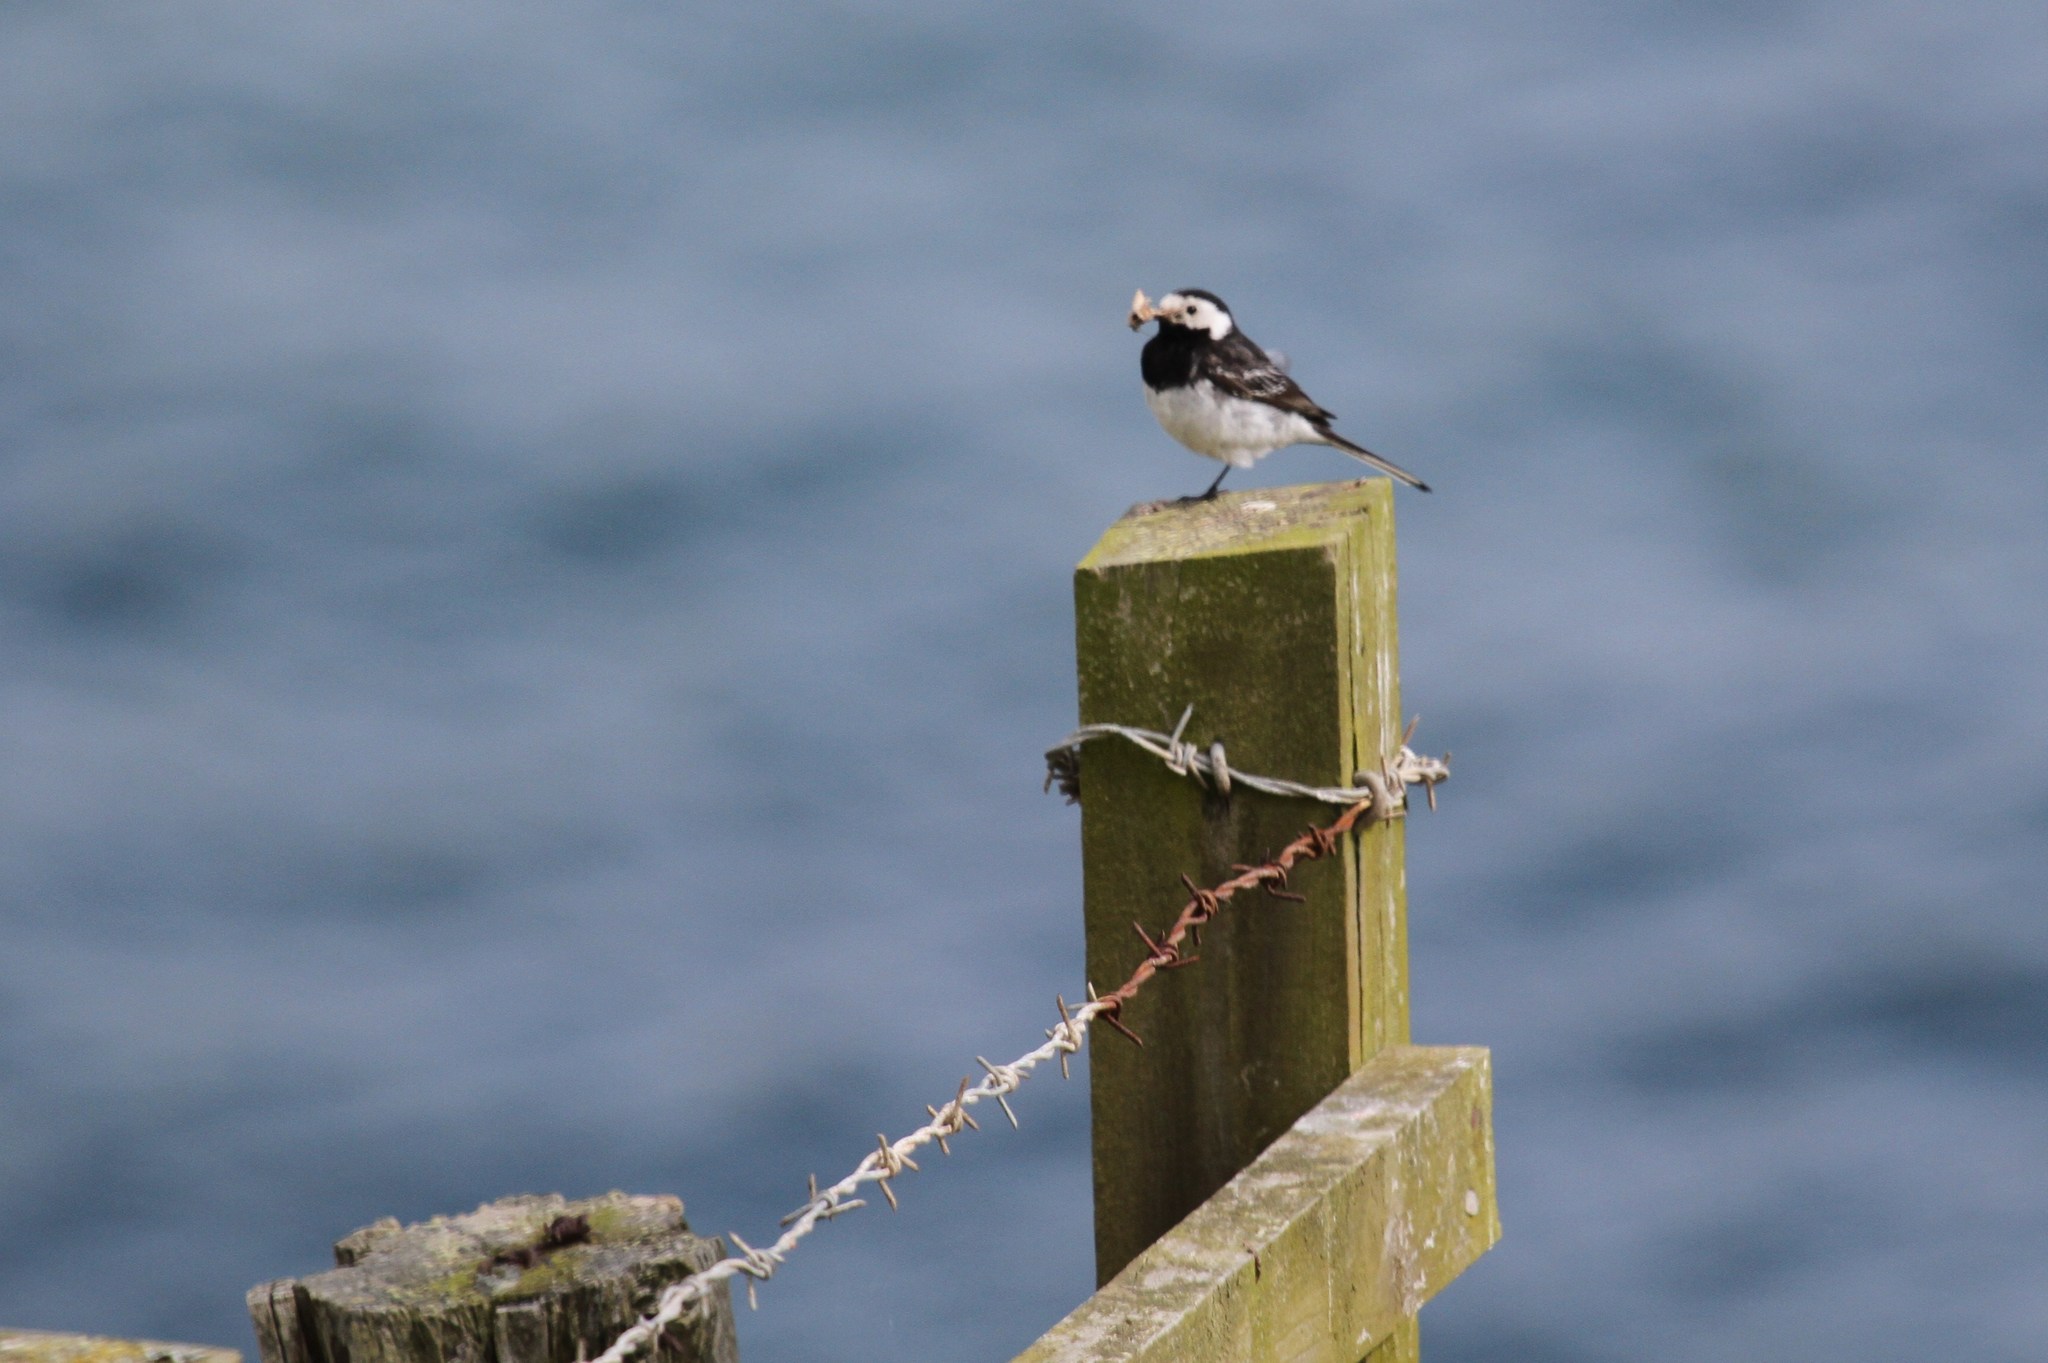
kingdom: Animalia
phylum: Chordata
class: Aves
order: Passeriformes
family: Motacillidae
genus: Motacilla
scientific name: Motacilla alba
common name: White wagtail
